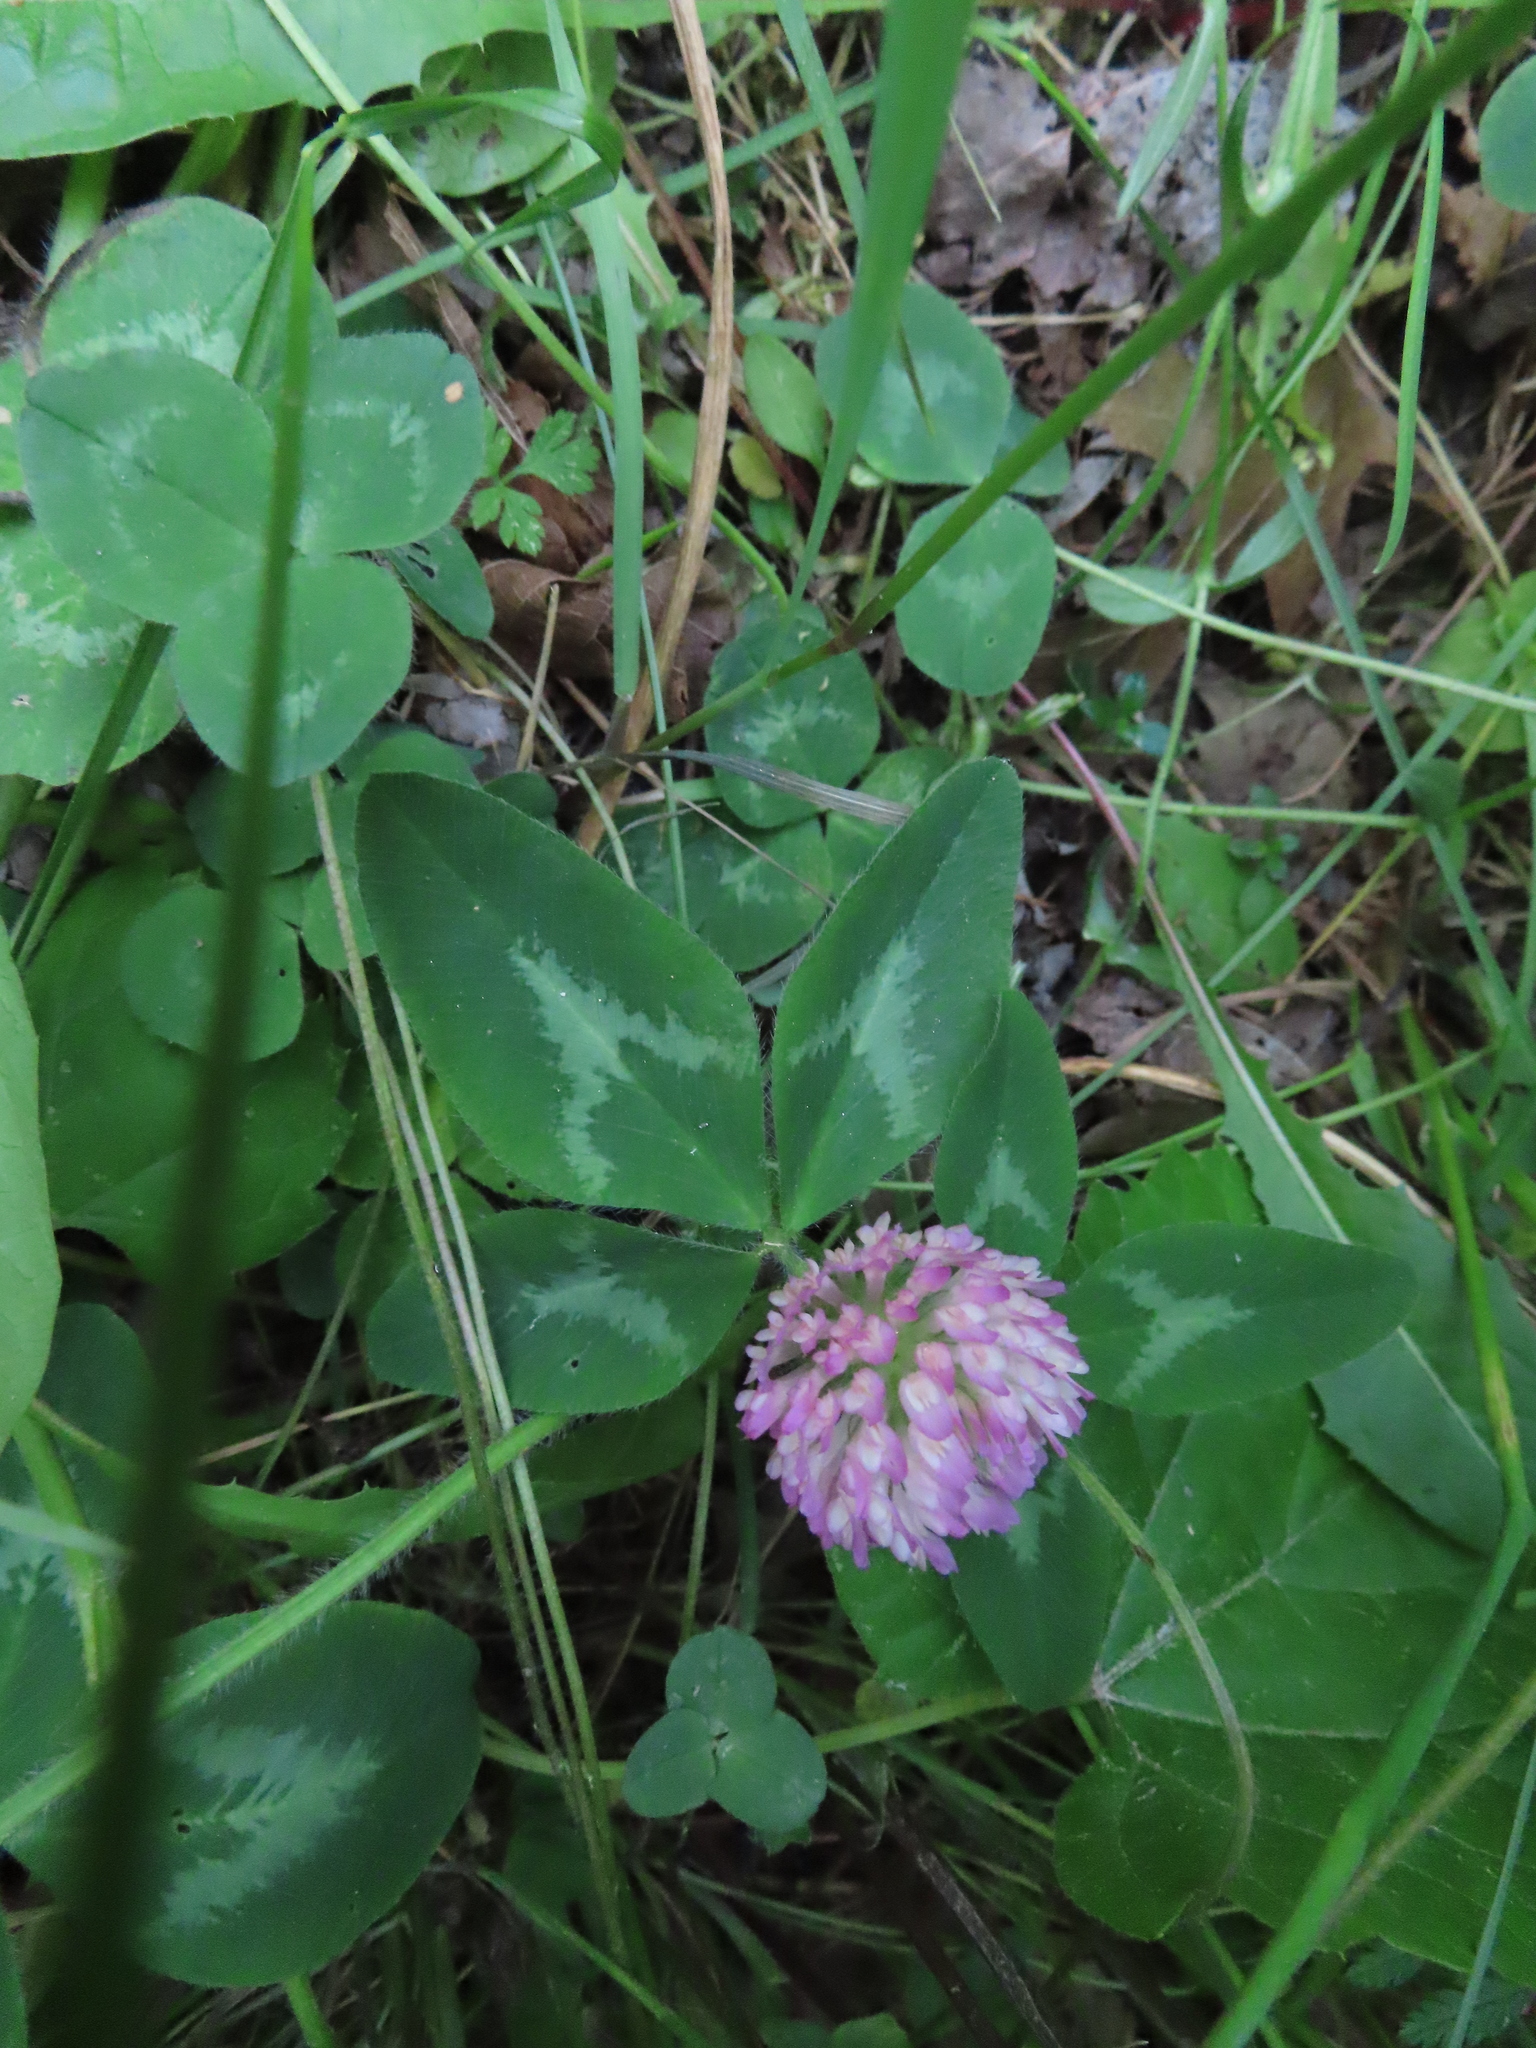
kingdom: Plantae
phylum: Tracheophyta
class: Magnoliopsida
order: Fabales
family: Fabaceae
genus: Trifolium
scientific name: Trifolium pratense
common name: Red clover
